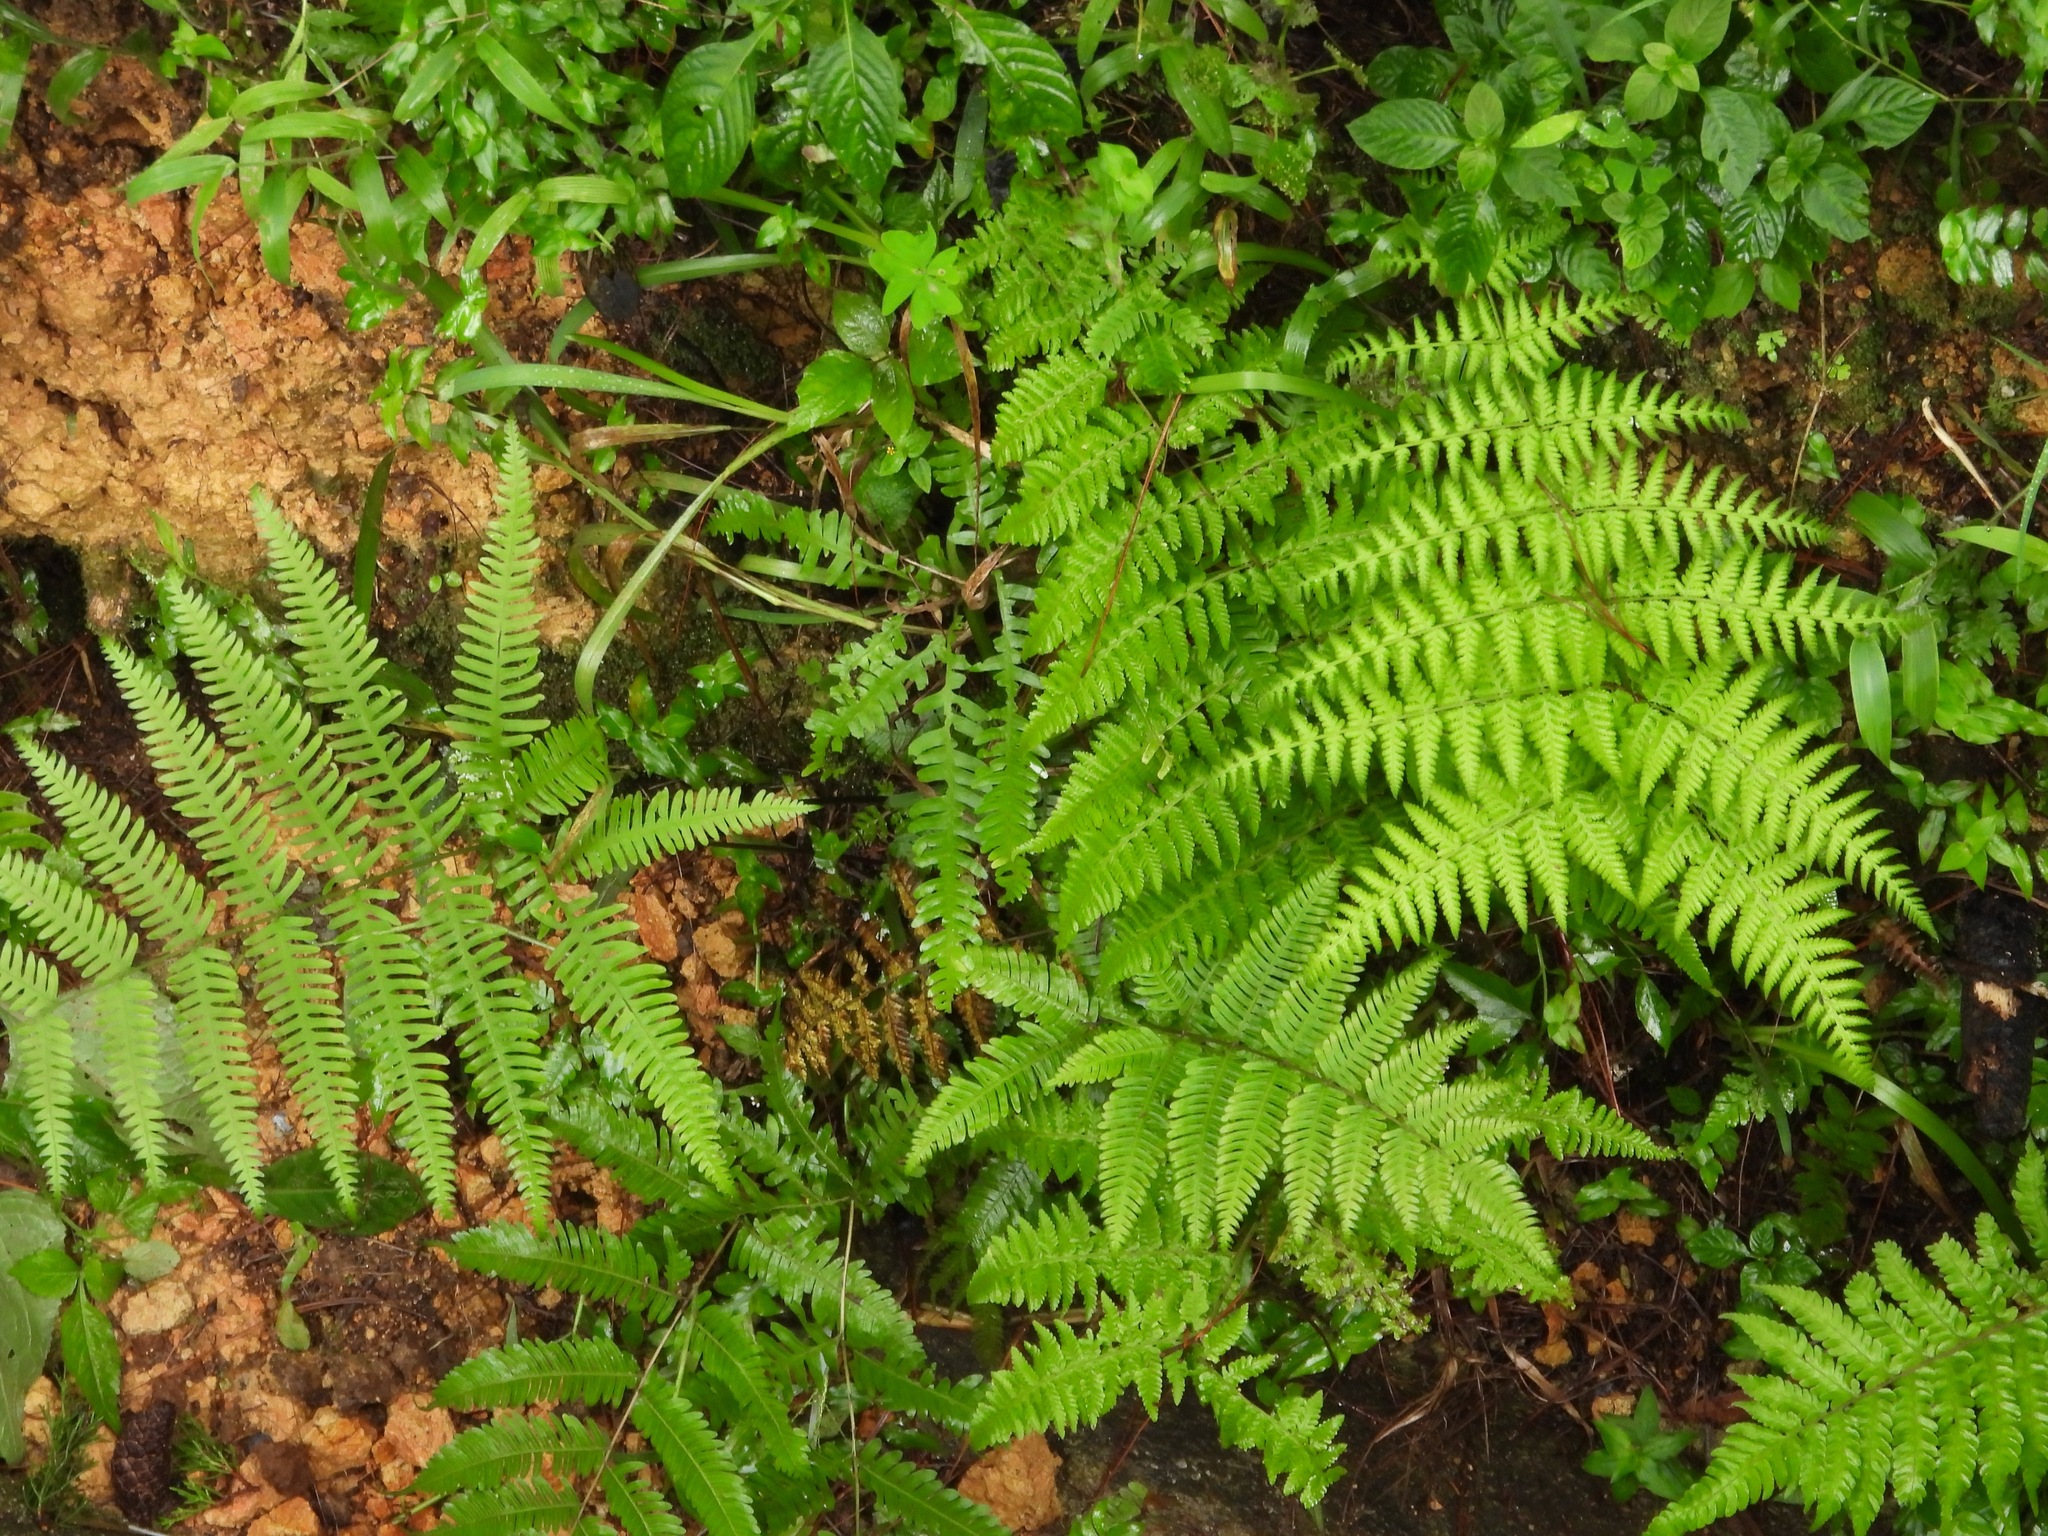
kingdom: Plantae
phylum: Tracheophyta
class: Polypodiopsida
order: Polypodiales
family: Thelypteridaceae
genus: Macrothelypteris
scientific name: Macrothelypteris torresiana
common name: Swordfern
